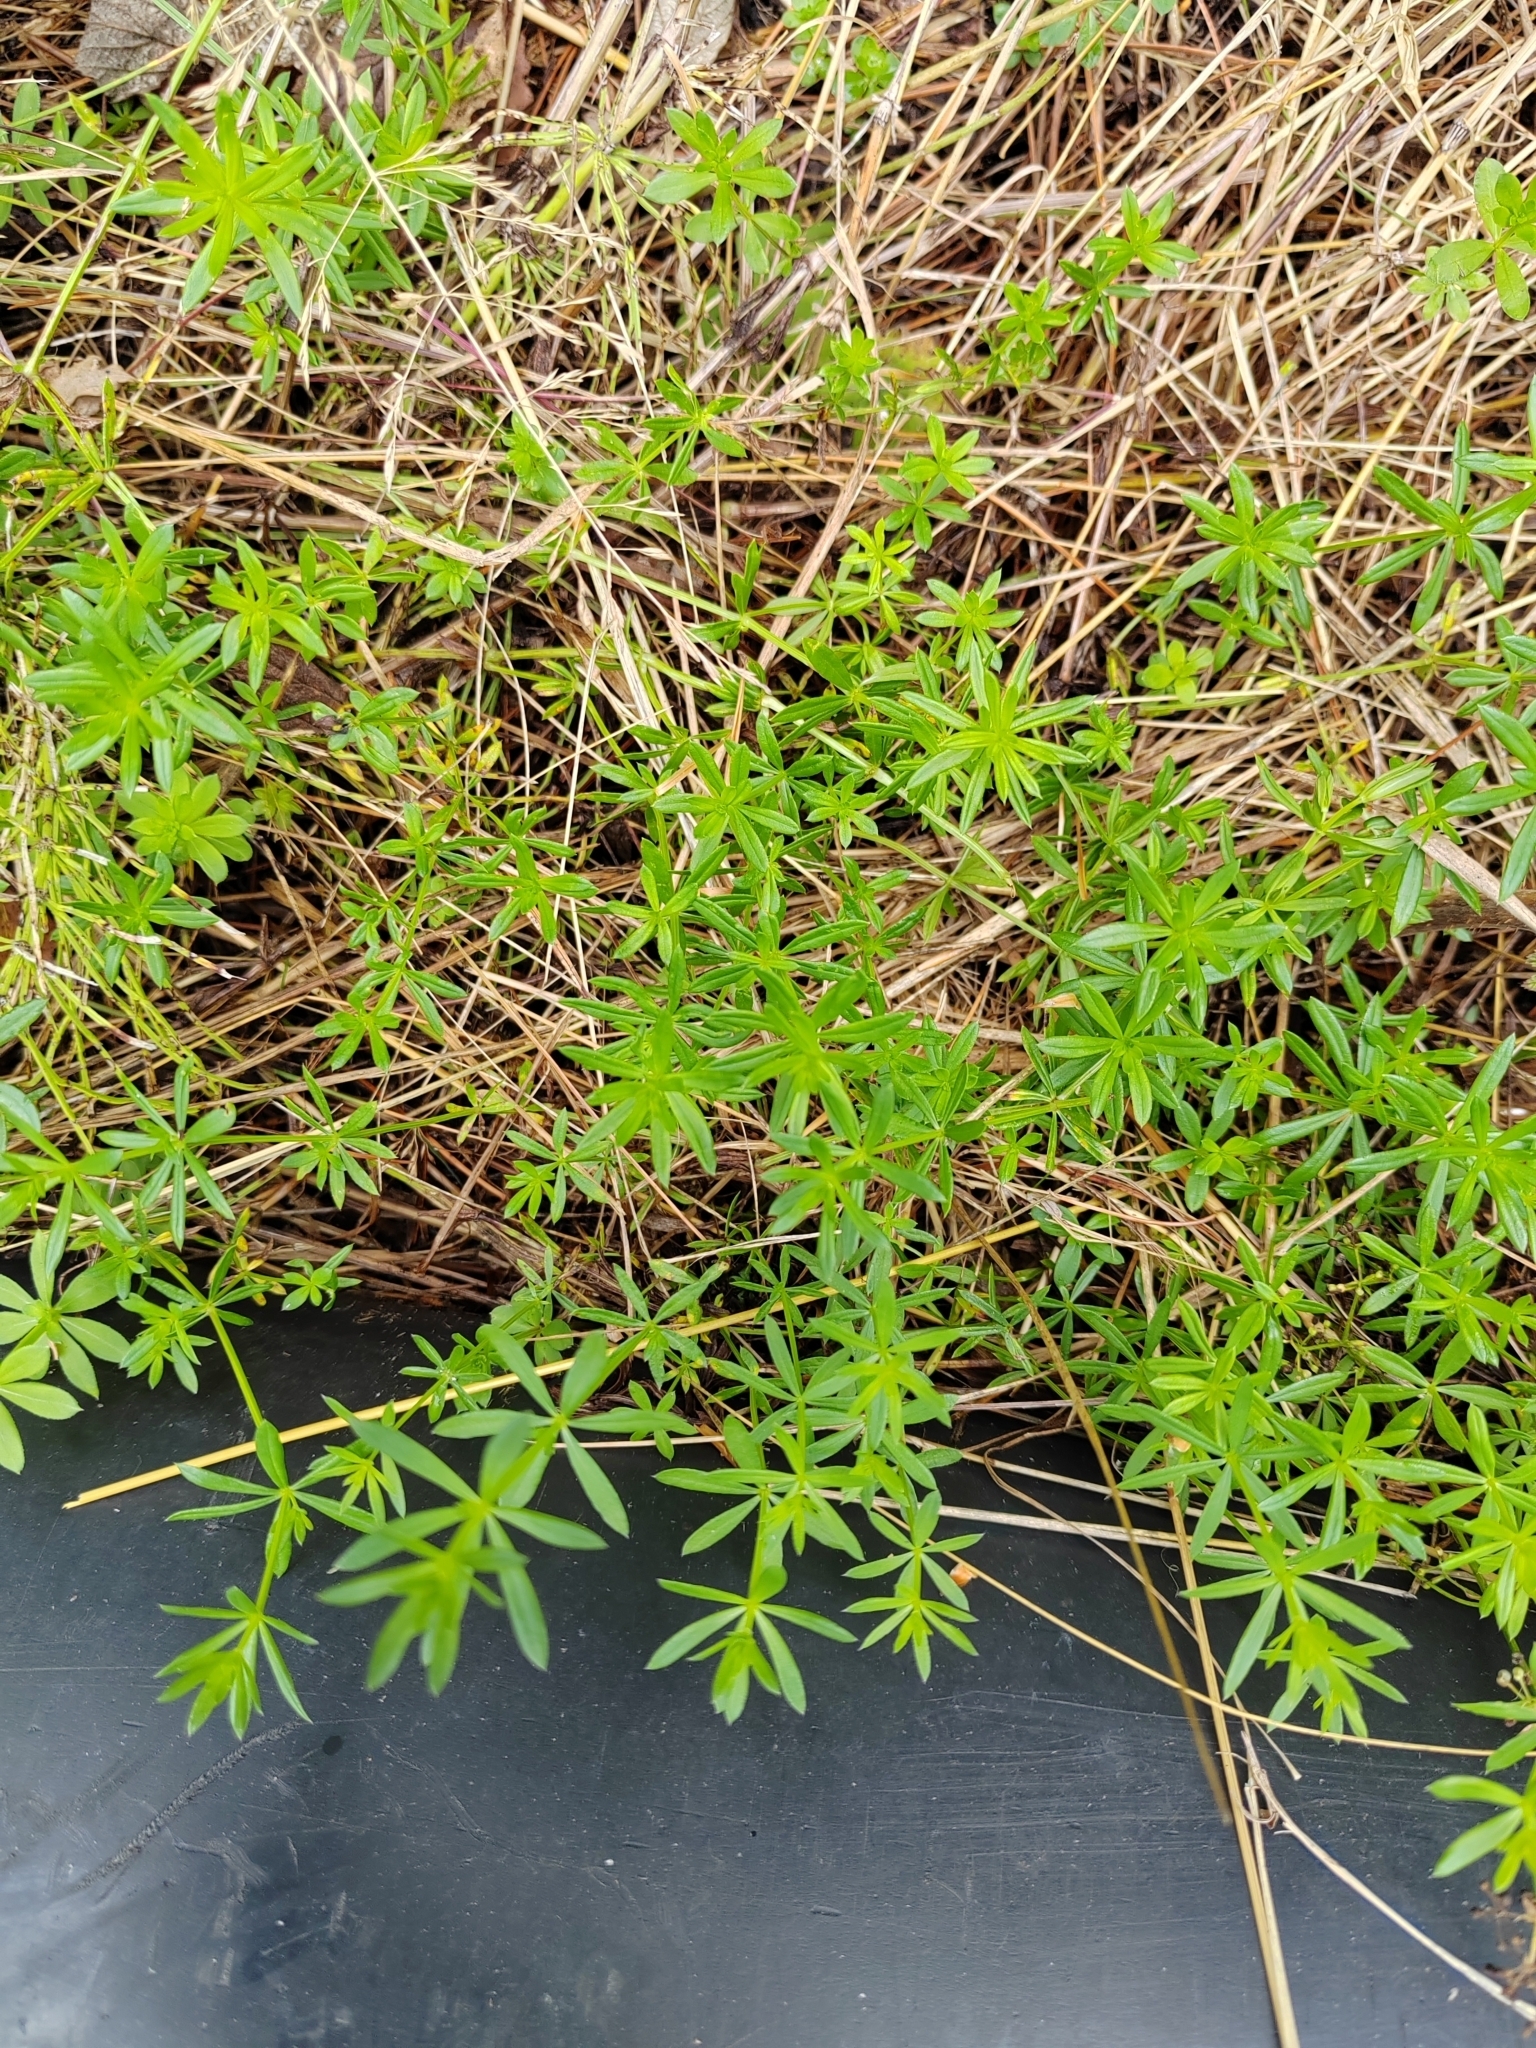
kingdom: Plantae
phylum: Tracheophyta
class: Magnoliopsida
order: Gentianales
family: Rubiaceae
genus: Galium
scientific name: Galium mollugo
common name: Hedge bedstraw
